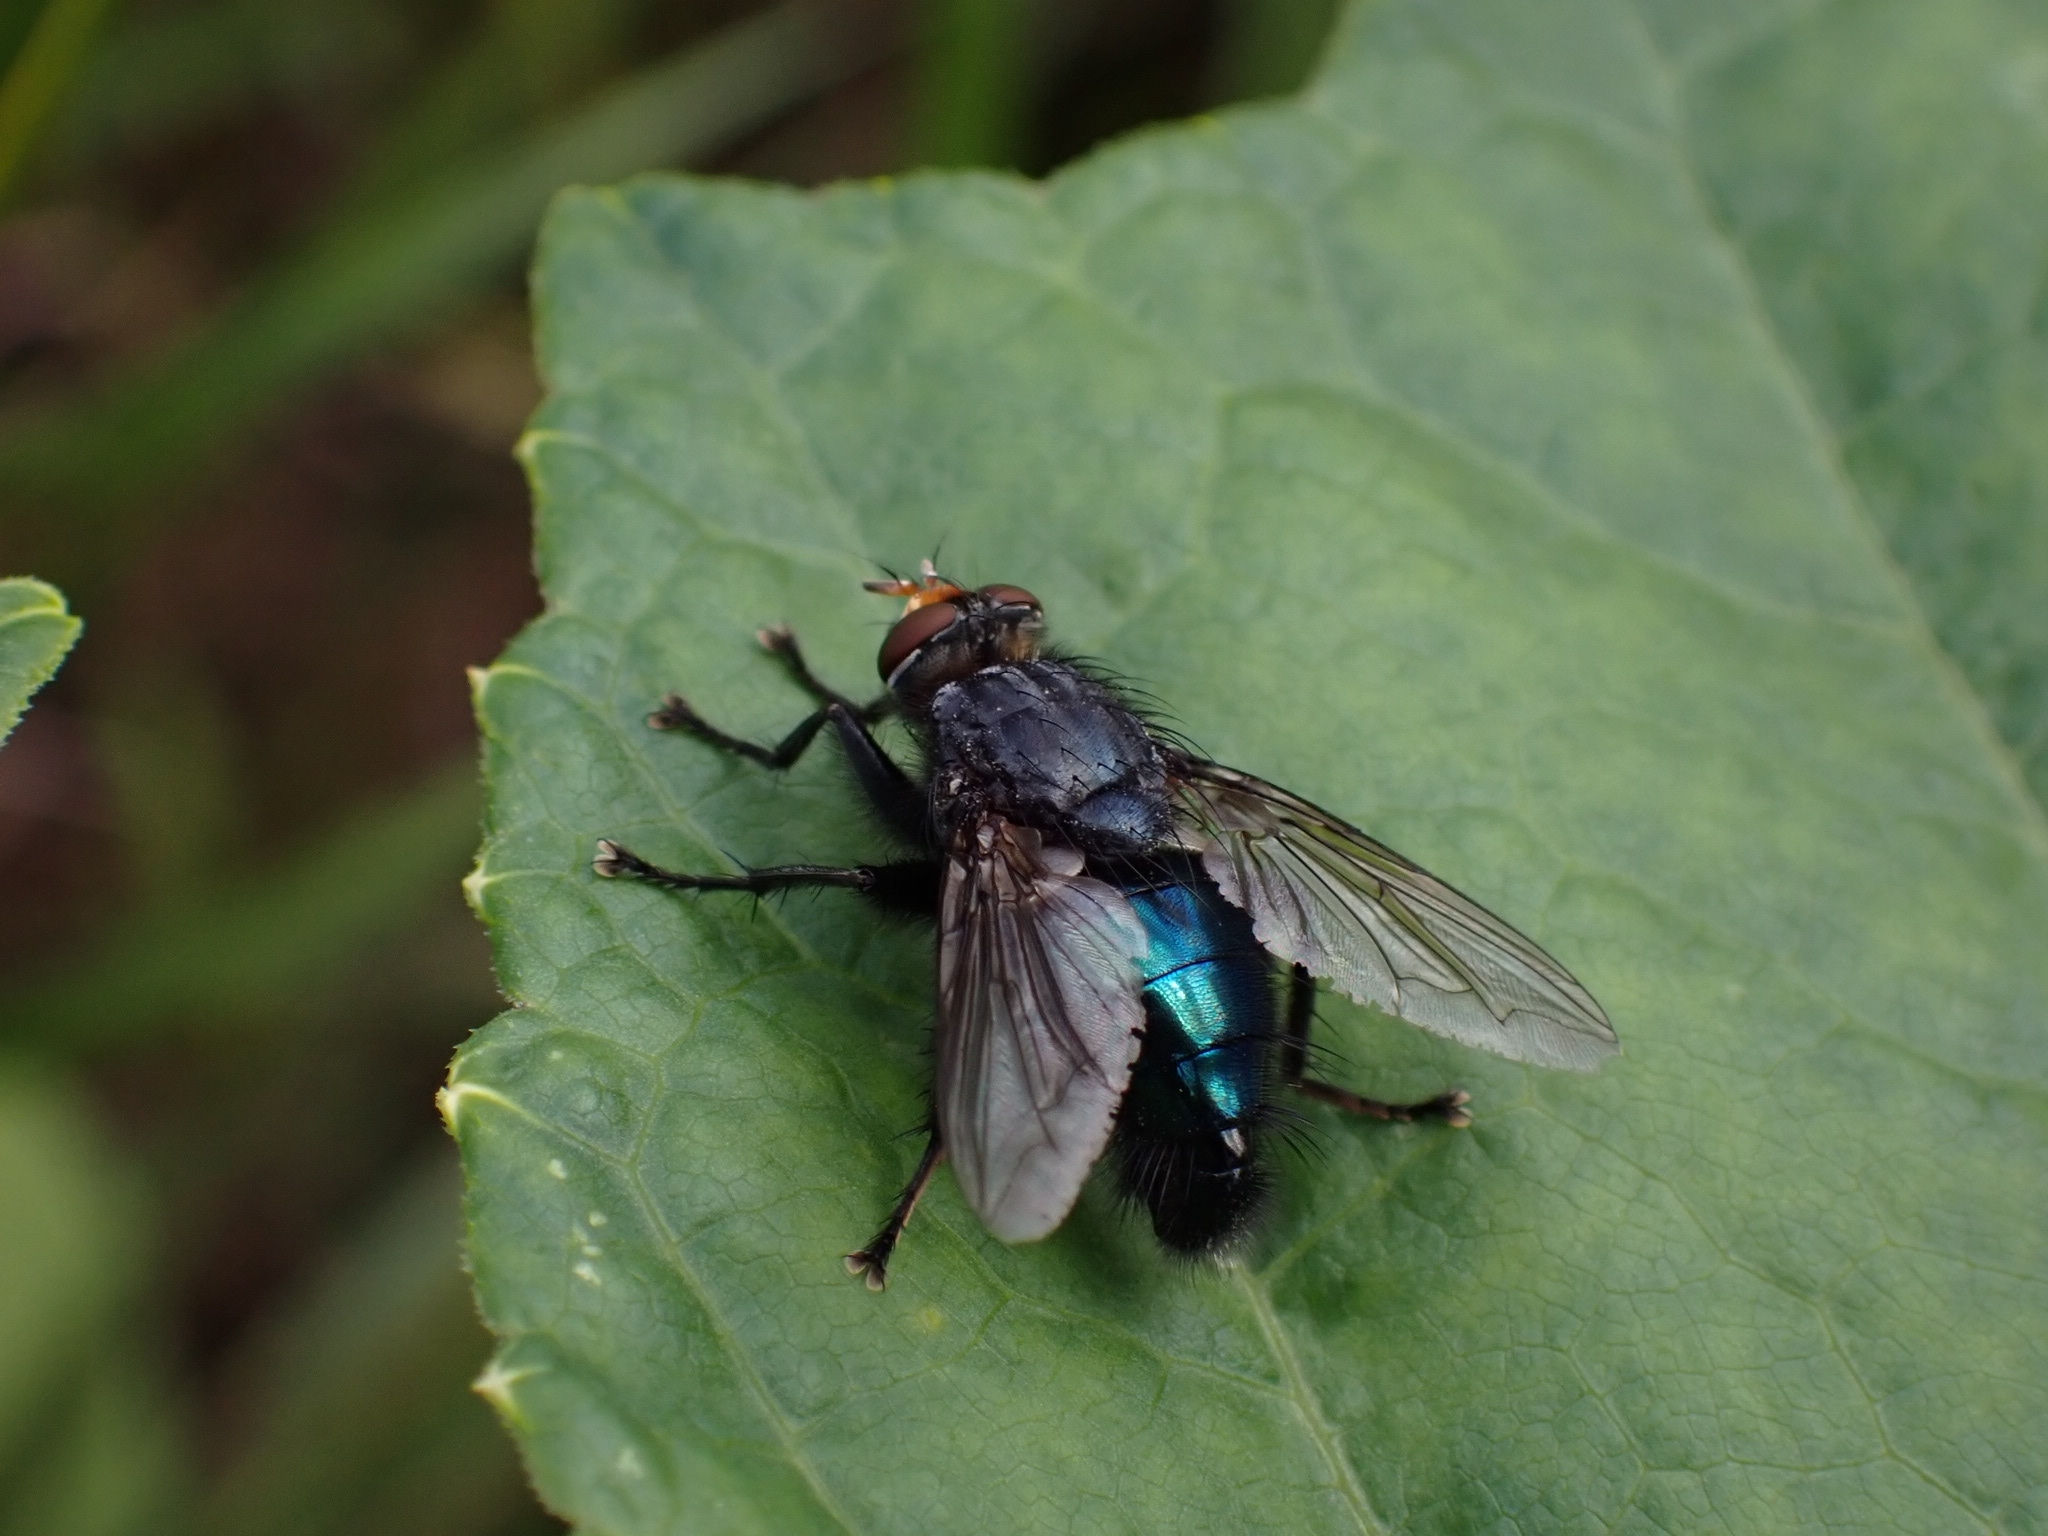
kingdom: Animalia
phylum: Arthropoda
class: Insecta
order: Diptera
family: Calliphoridae
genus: Cynomya
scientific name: Cynomya mortuorum
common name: Bluebottle blow fly
